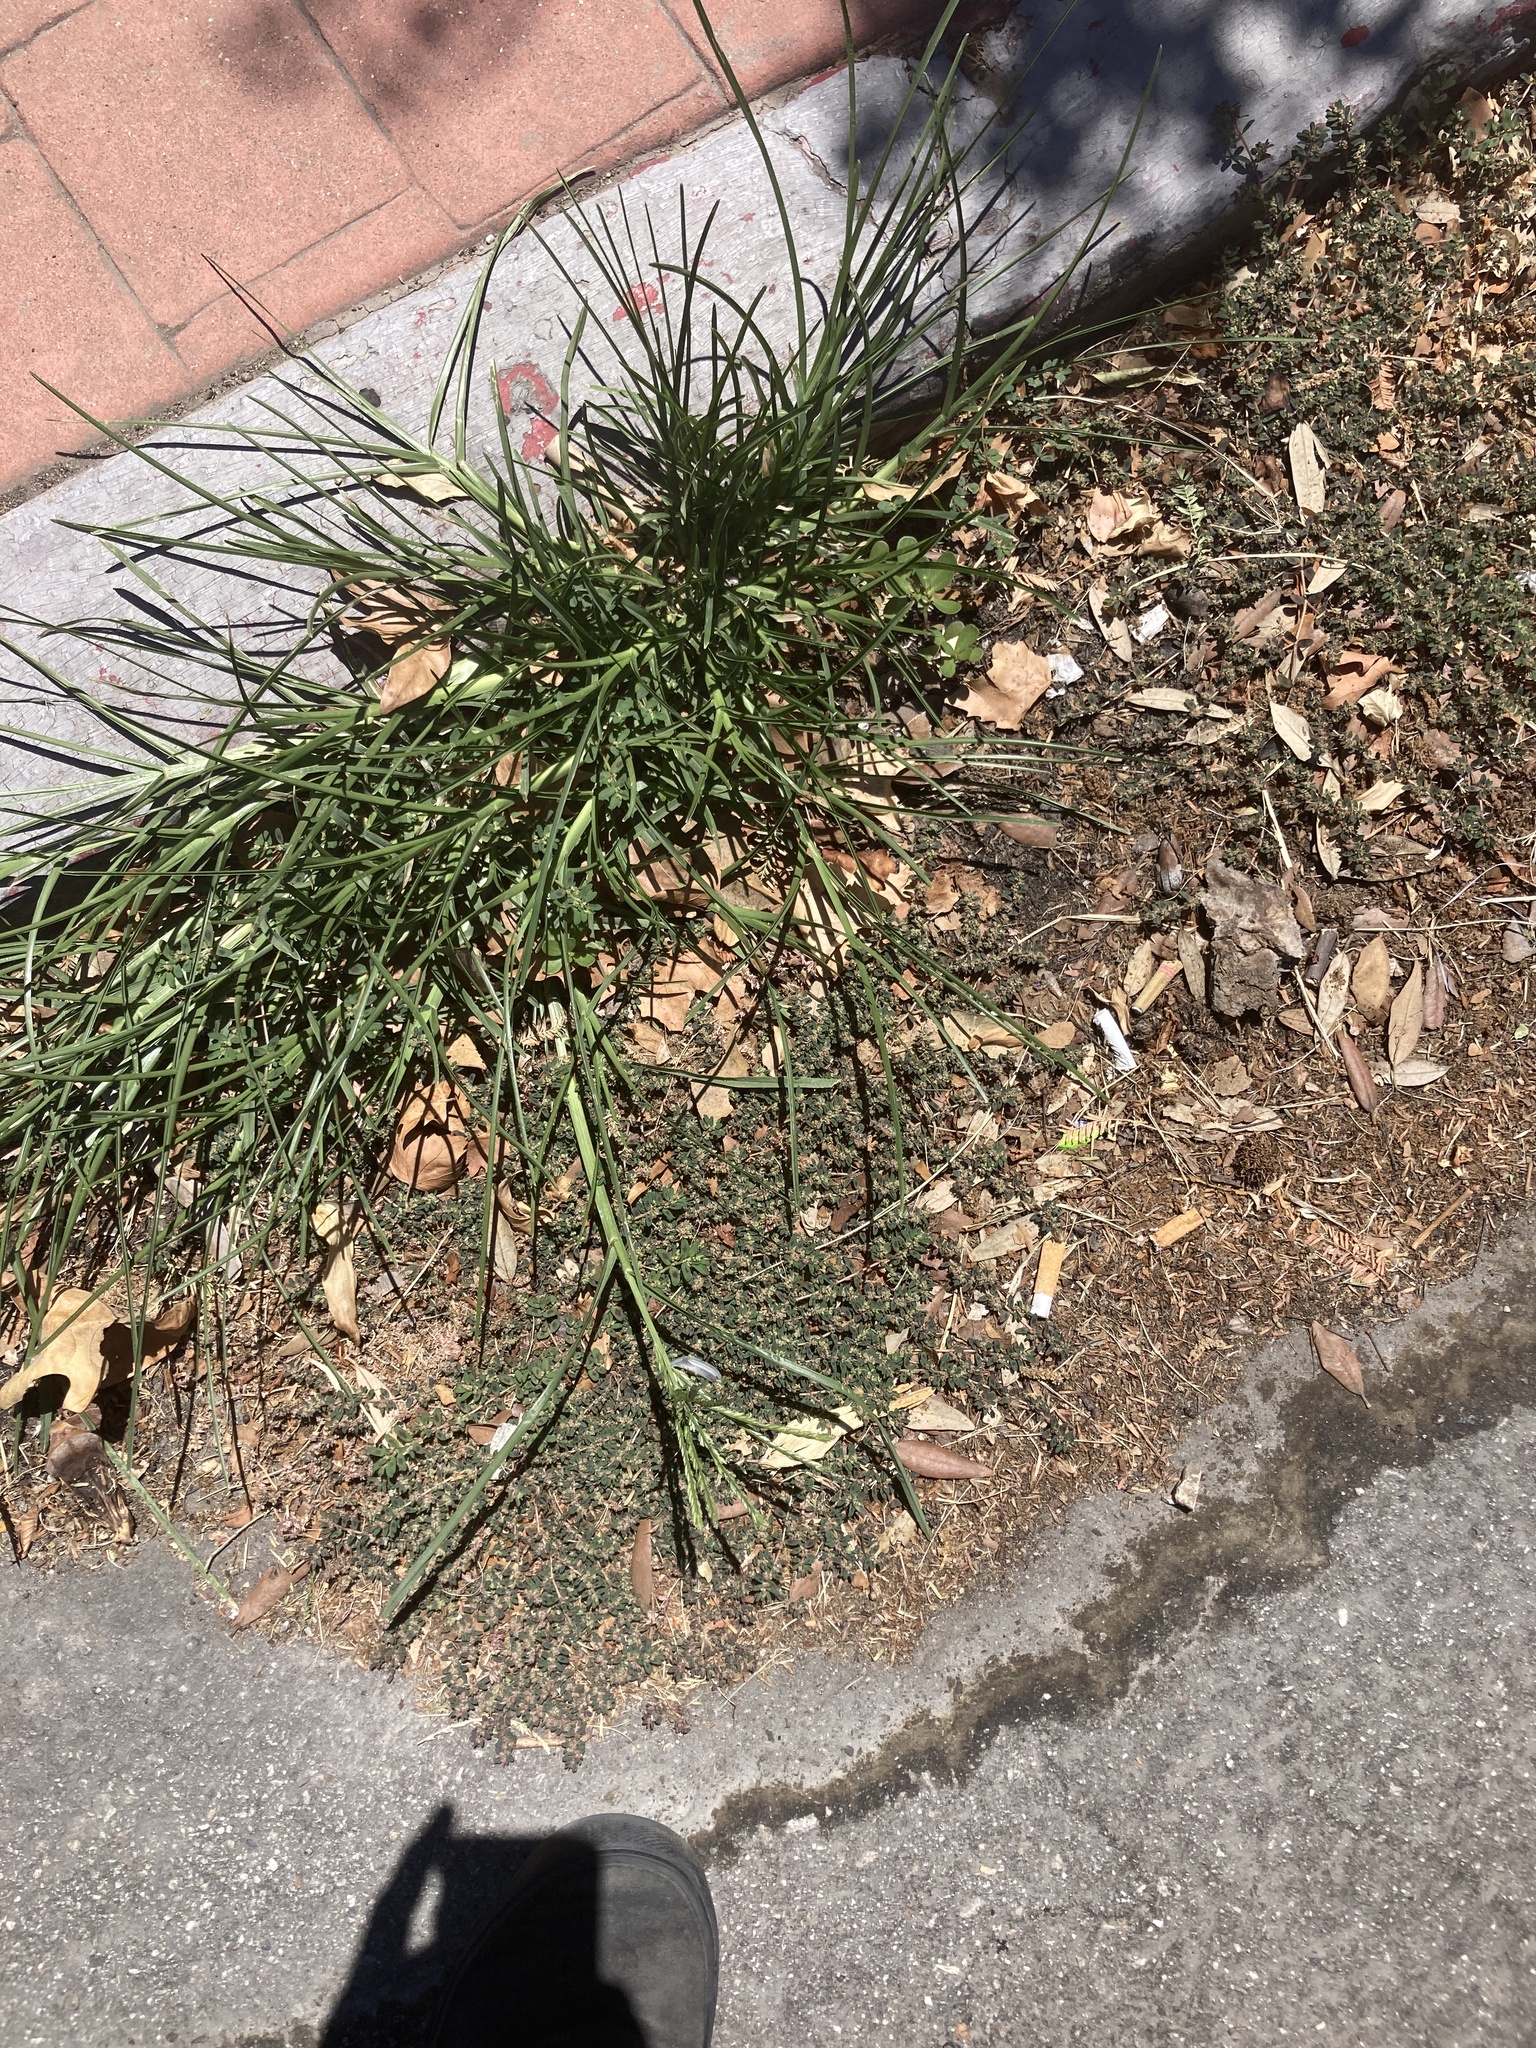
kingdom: Plantae
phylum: Tracheophyta
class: Liliopsida
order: Poales
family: Poaceae
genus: Eleusine
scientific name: Eleusine indica
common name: Yard-grass
